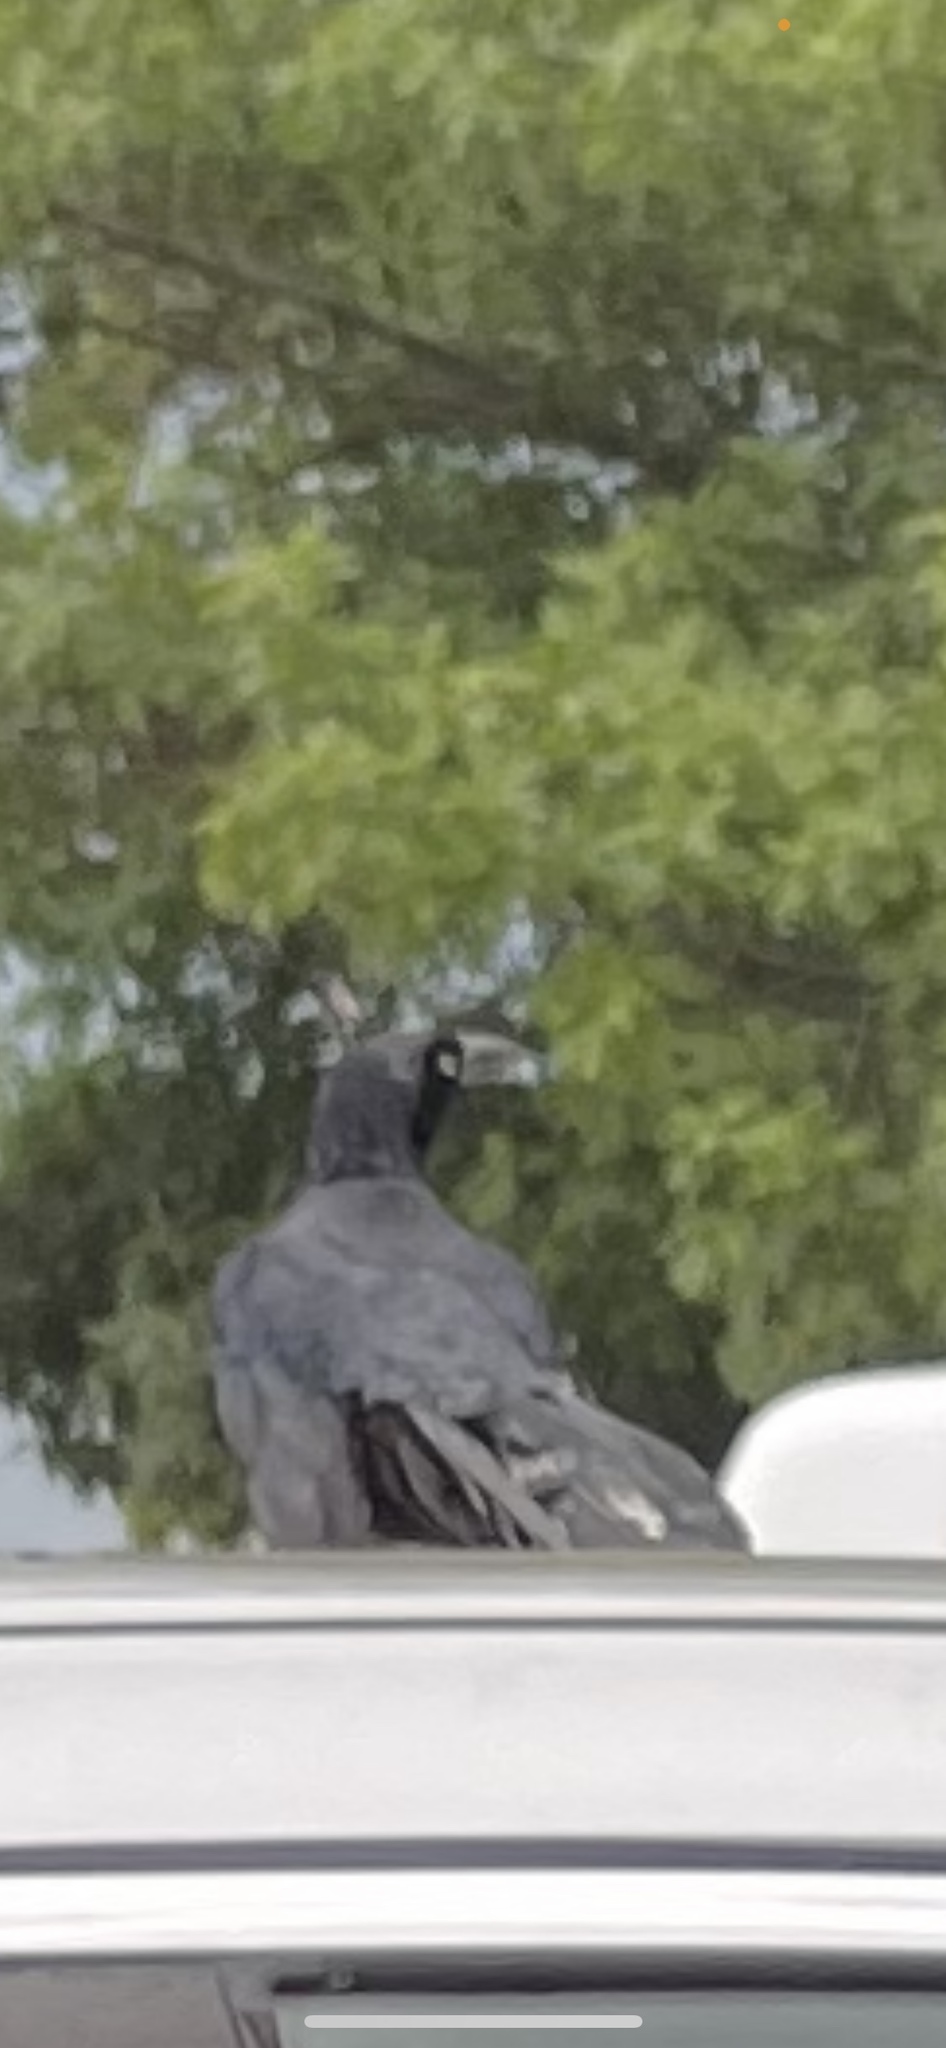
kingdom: Animalia
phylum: Chordata
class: Aves
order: Passeriformes
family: Icteridae
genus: Quiscalus
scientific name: Quiscalus mexicanus
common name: Great-tailed grackle
